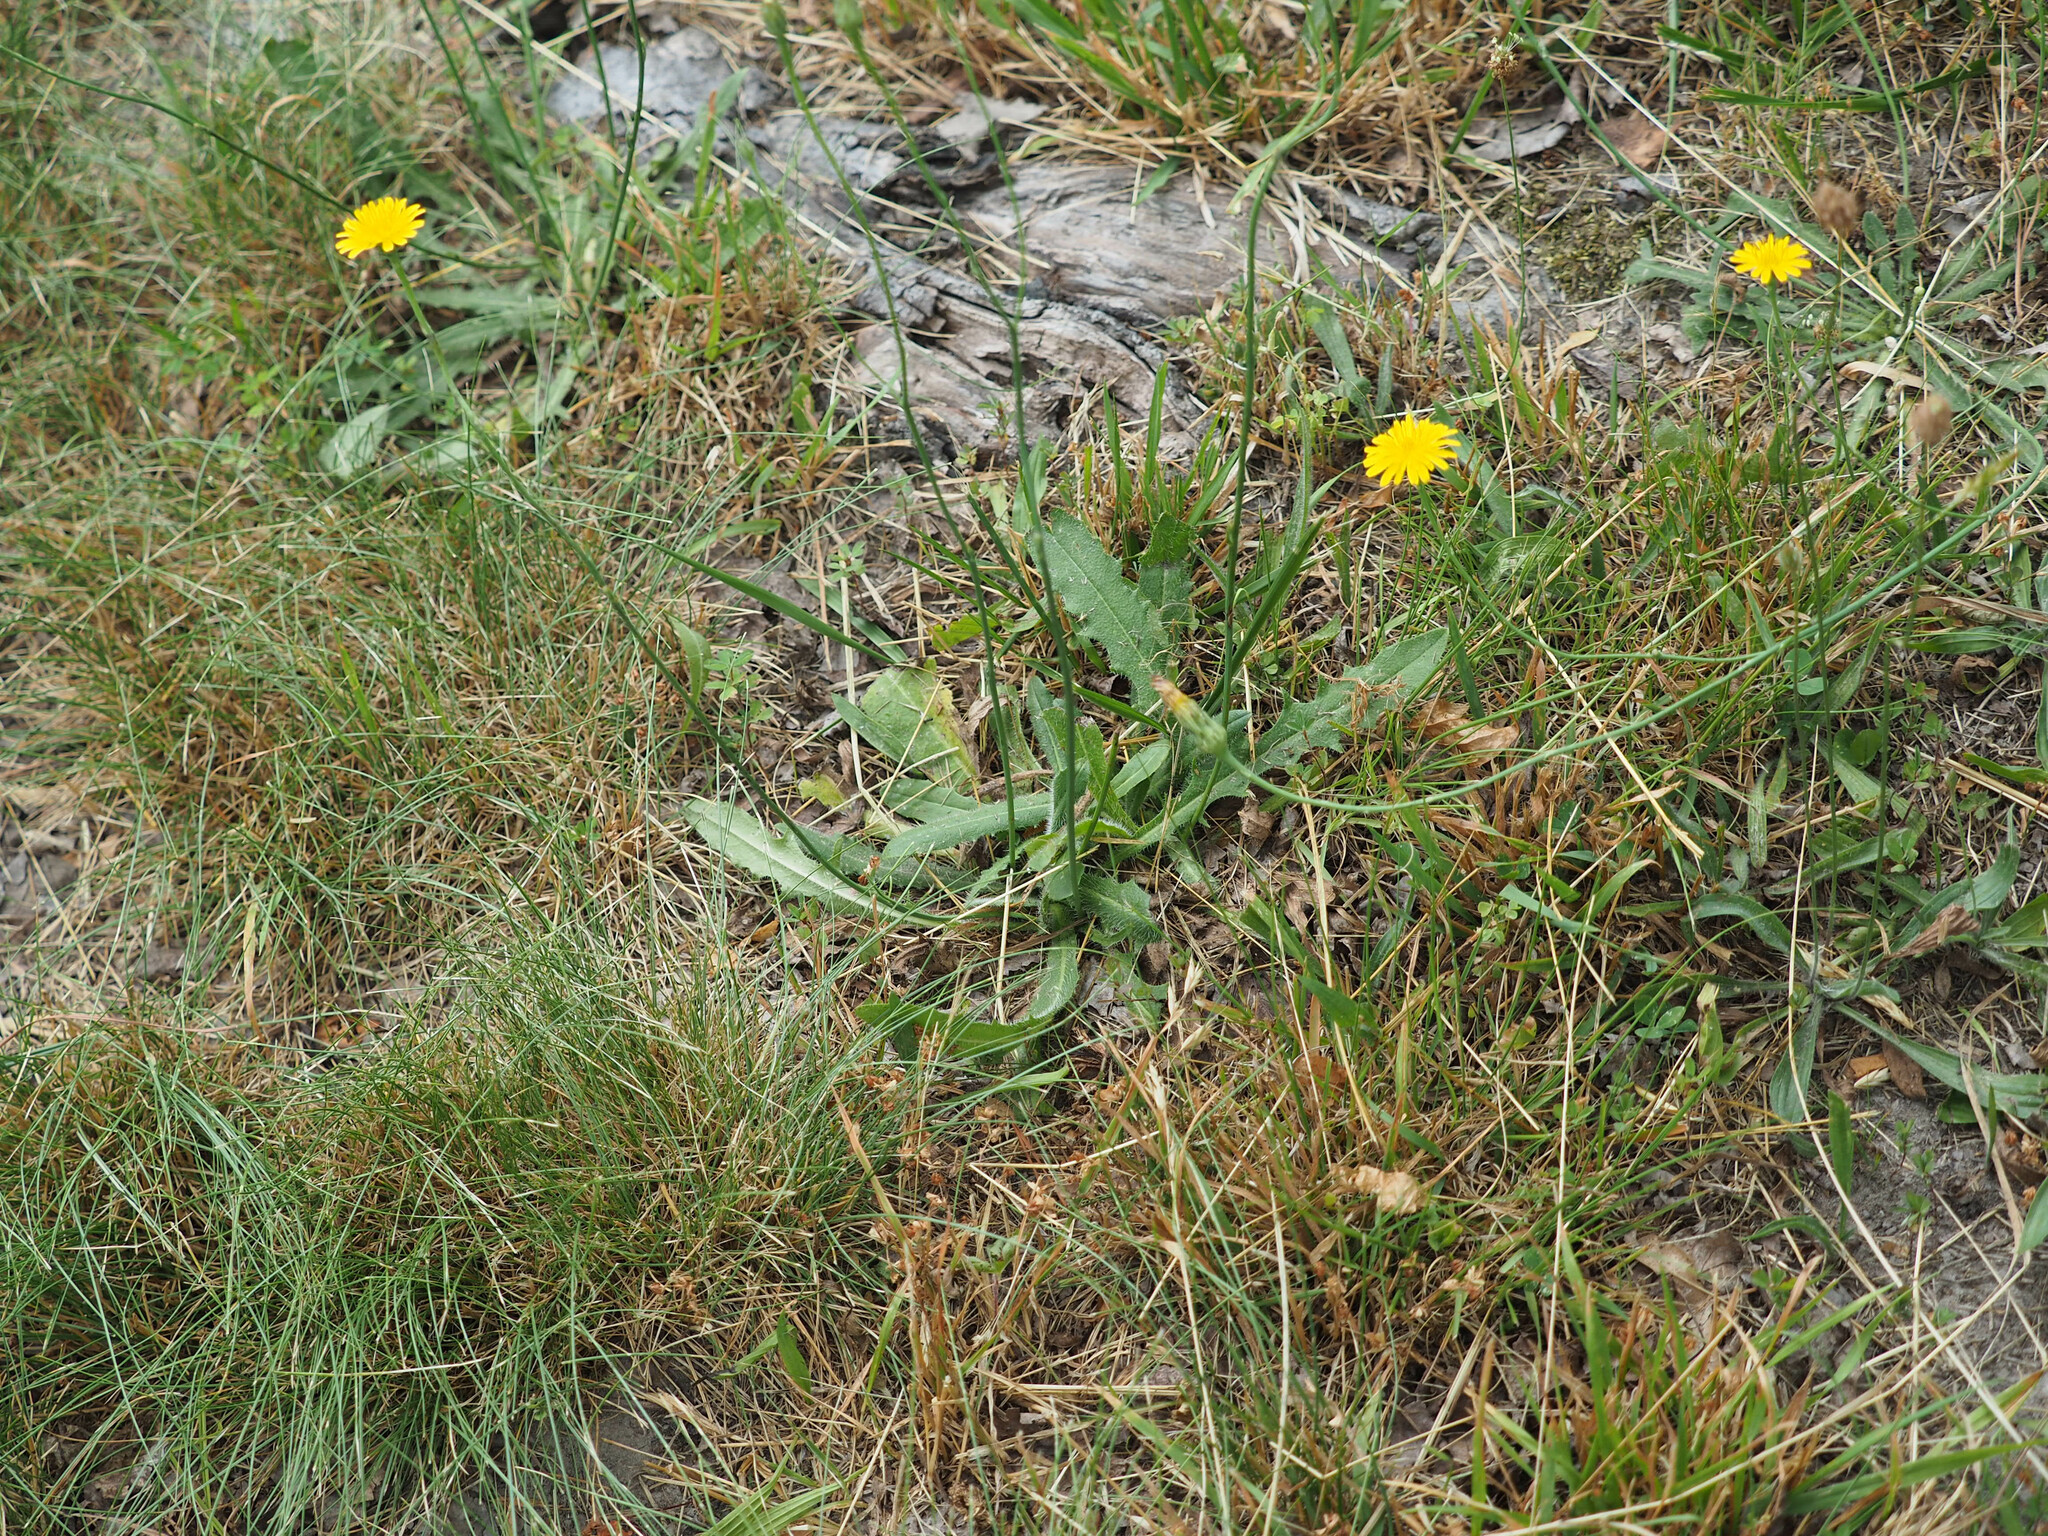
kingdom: Plantae
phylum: Tracheophyta
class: Magnoliopsida
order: Asterales
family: Asteraceae
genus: Hypochaeris
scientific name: Hypochaeris radicata
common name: Flatweed
